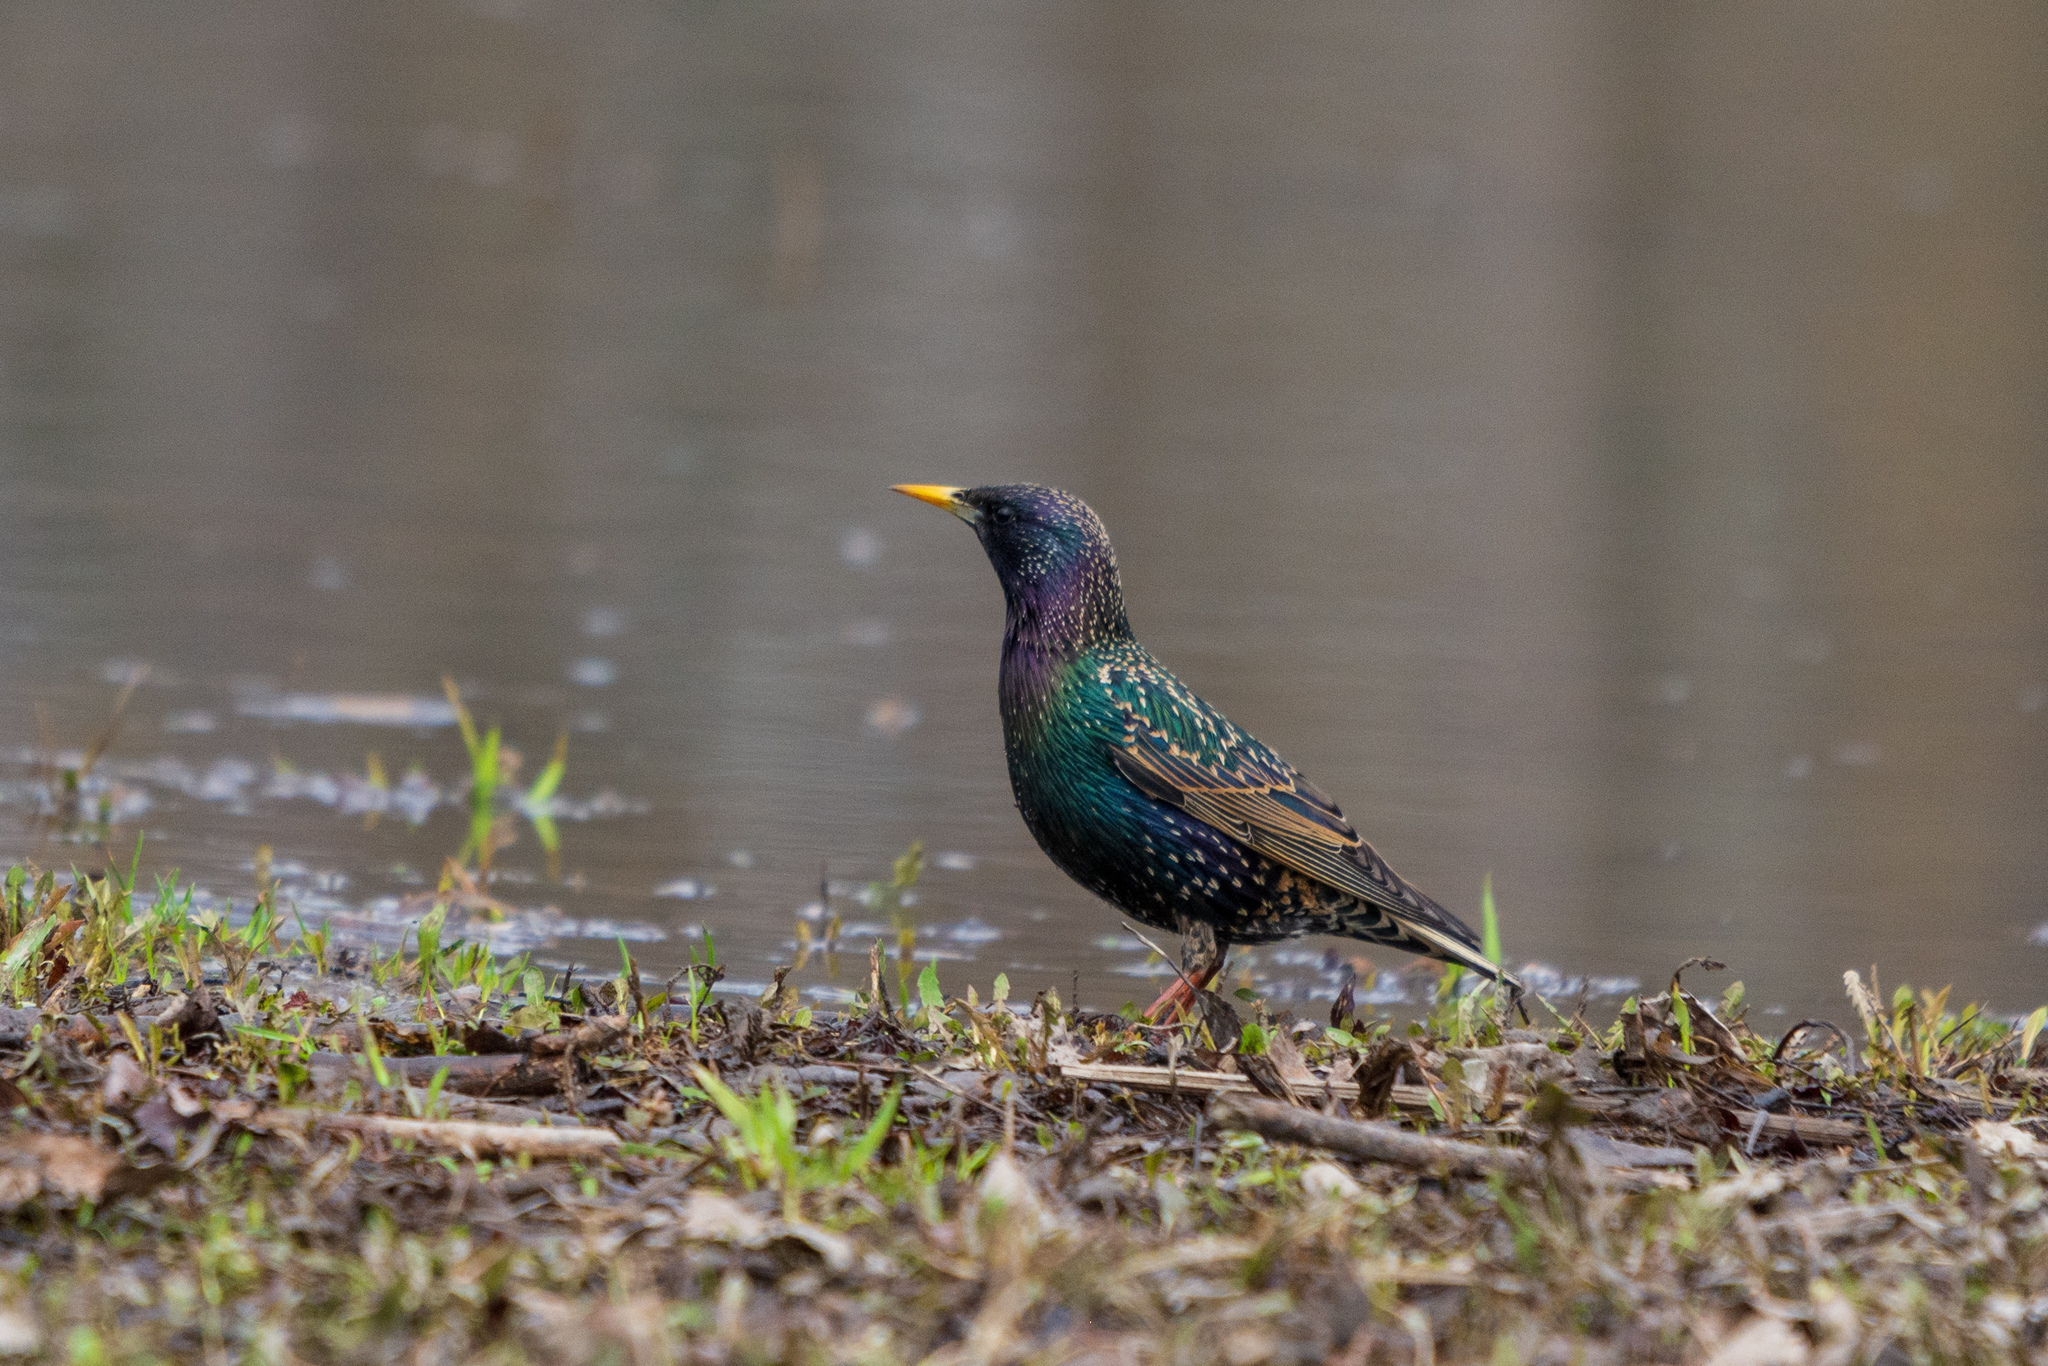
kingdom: Animalia
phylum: Chordata
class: Aves
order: Passeriformes
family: Sturnidae
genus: Sturnus
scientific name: Sturnus vulgaris
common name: Common starling
